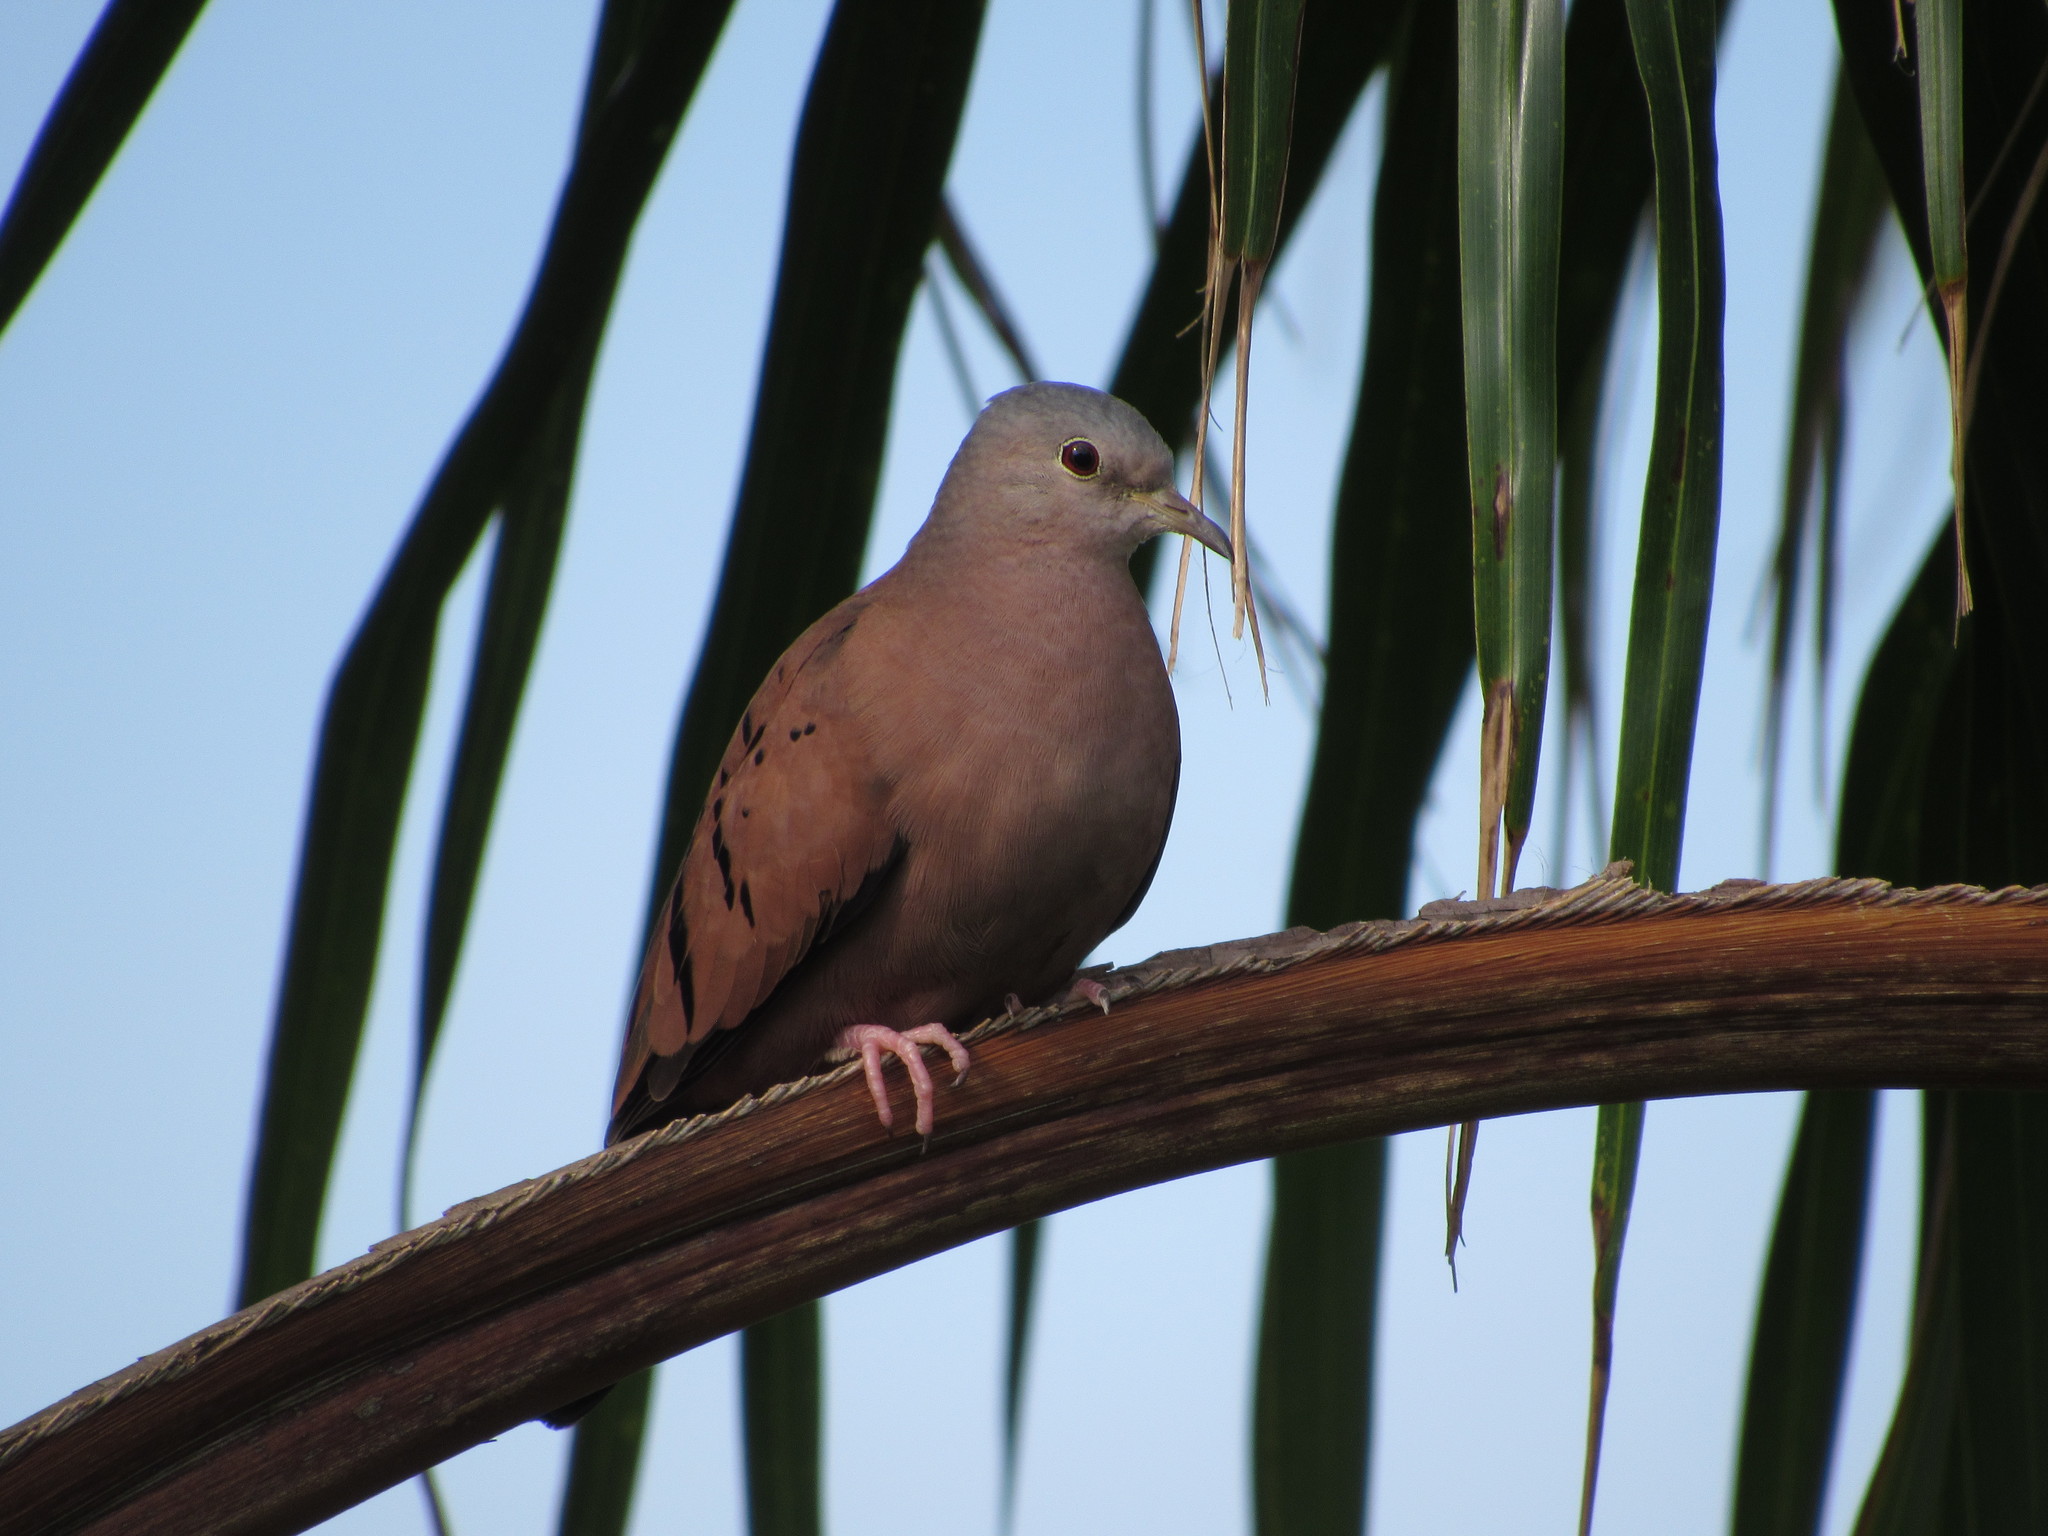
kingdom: Animalia
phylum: Chordata
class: Aves
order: Columbiformes
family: Columbidae
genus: Columbina
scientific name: Columbina talpacoti
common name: Ruddy ground dove
